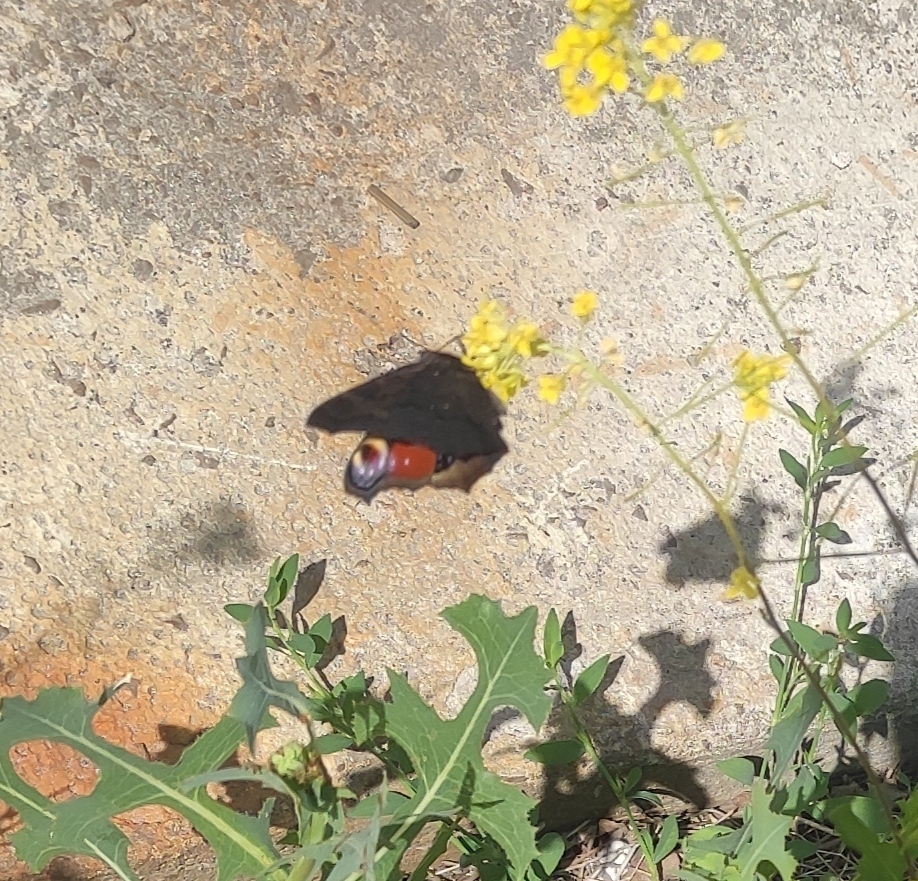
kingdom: Animalia
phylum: Arthropoda
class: Insecta
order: Lepidoptera
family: Nymphalidae
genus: Aglais
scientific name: Aglais io
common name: Peacock
